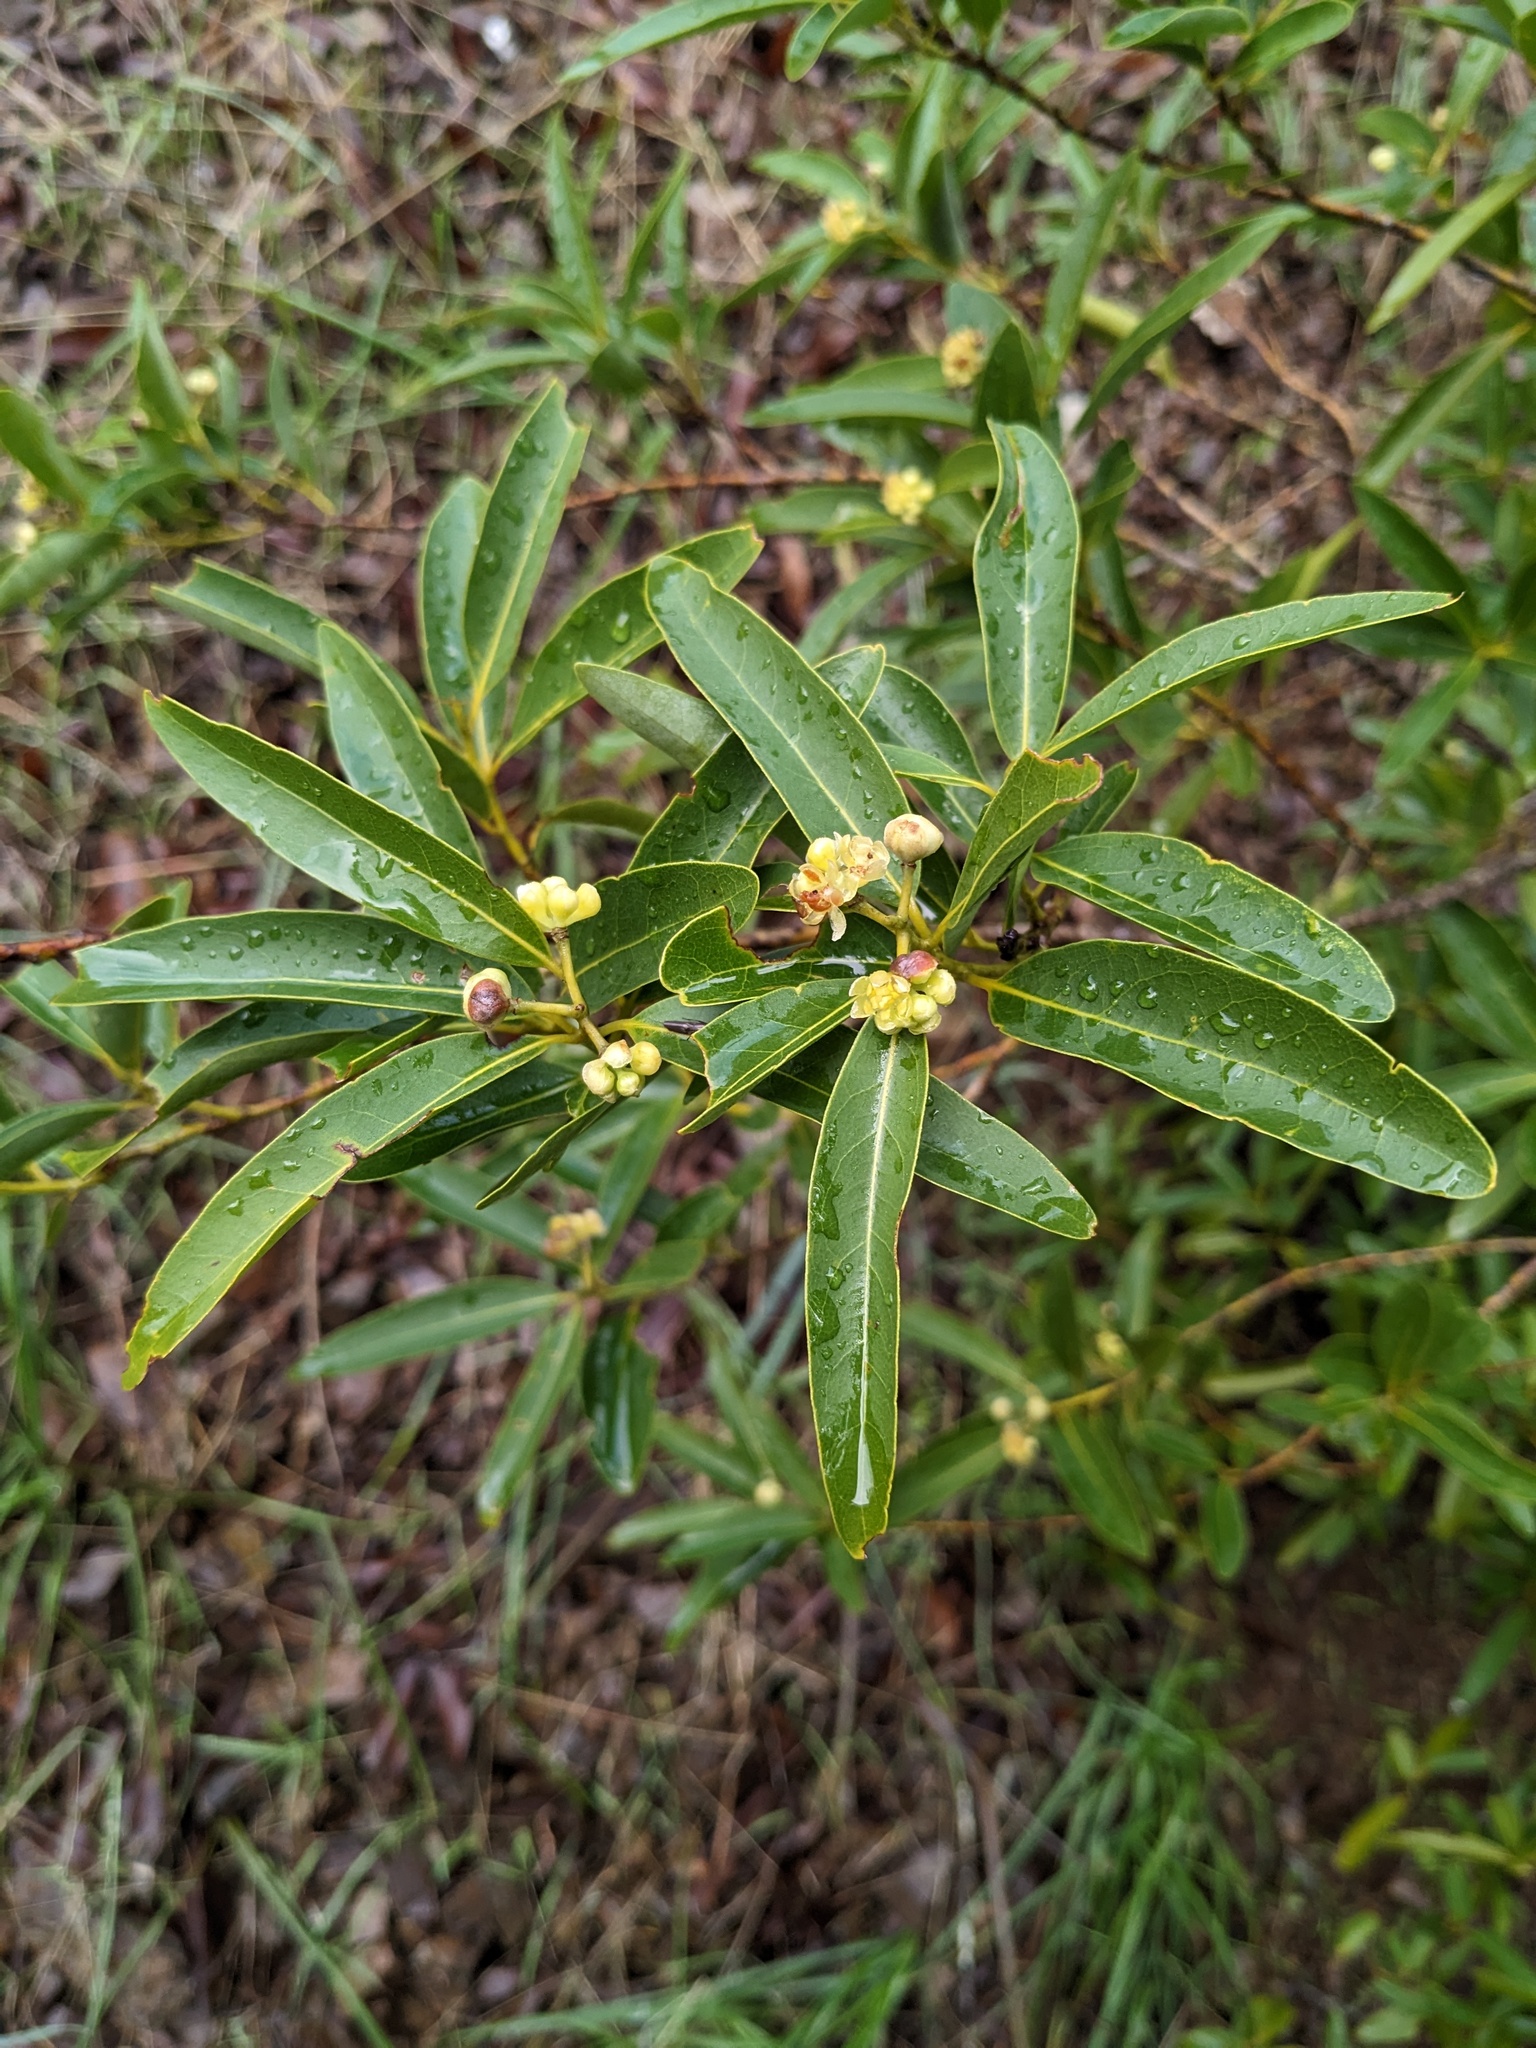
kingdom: Plantae
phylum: Tracheophyta
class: Magnoliopsida
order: Laurales
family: Lauraceae
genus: Umbellularia
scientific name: Umbellularia californica
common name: California bay
